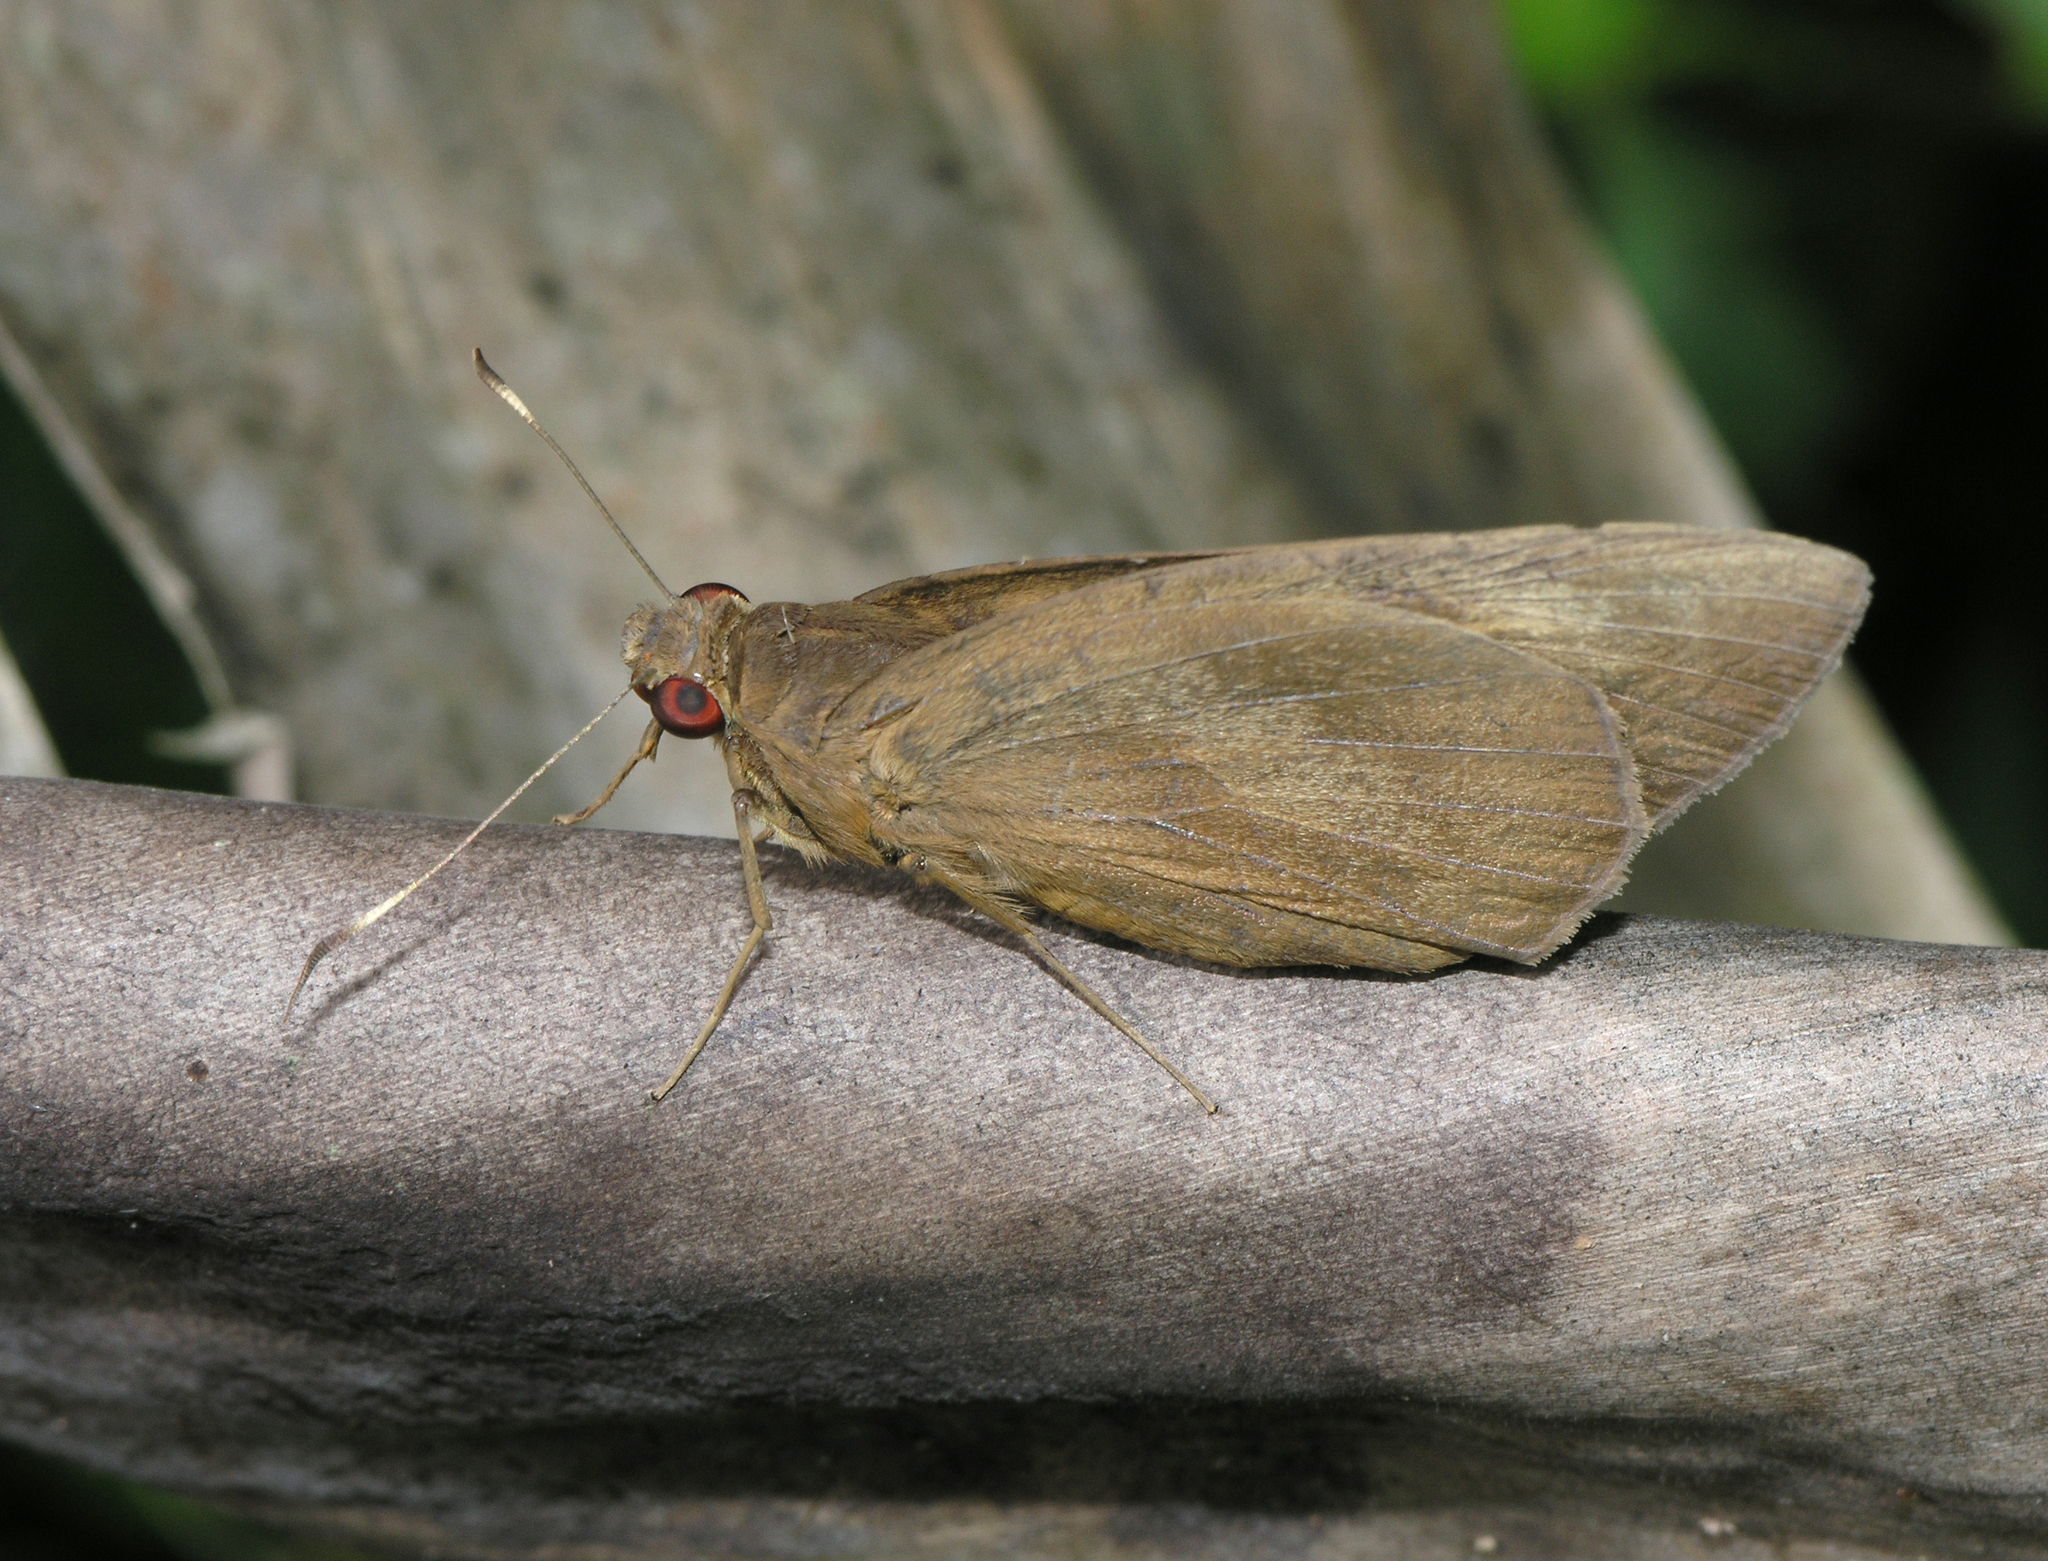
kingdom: Animalia
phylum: Arthropoda
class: Insecta
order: Lepidoptera
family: Hesperiidae
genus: Erionota
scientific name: Erionota torus
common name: Rounded palm-redeye
